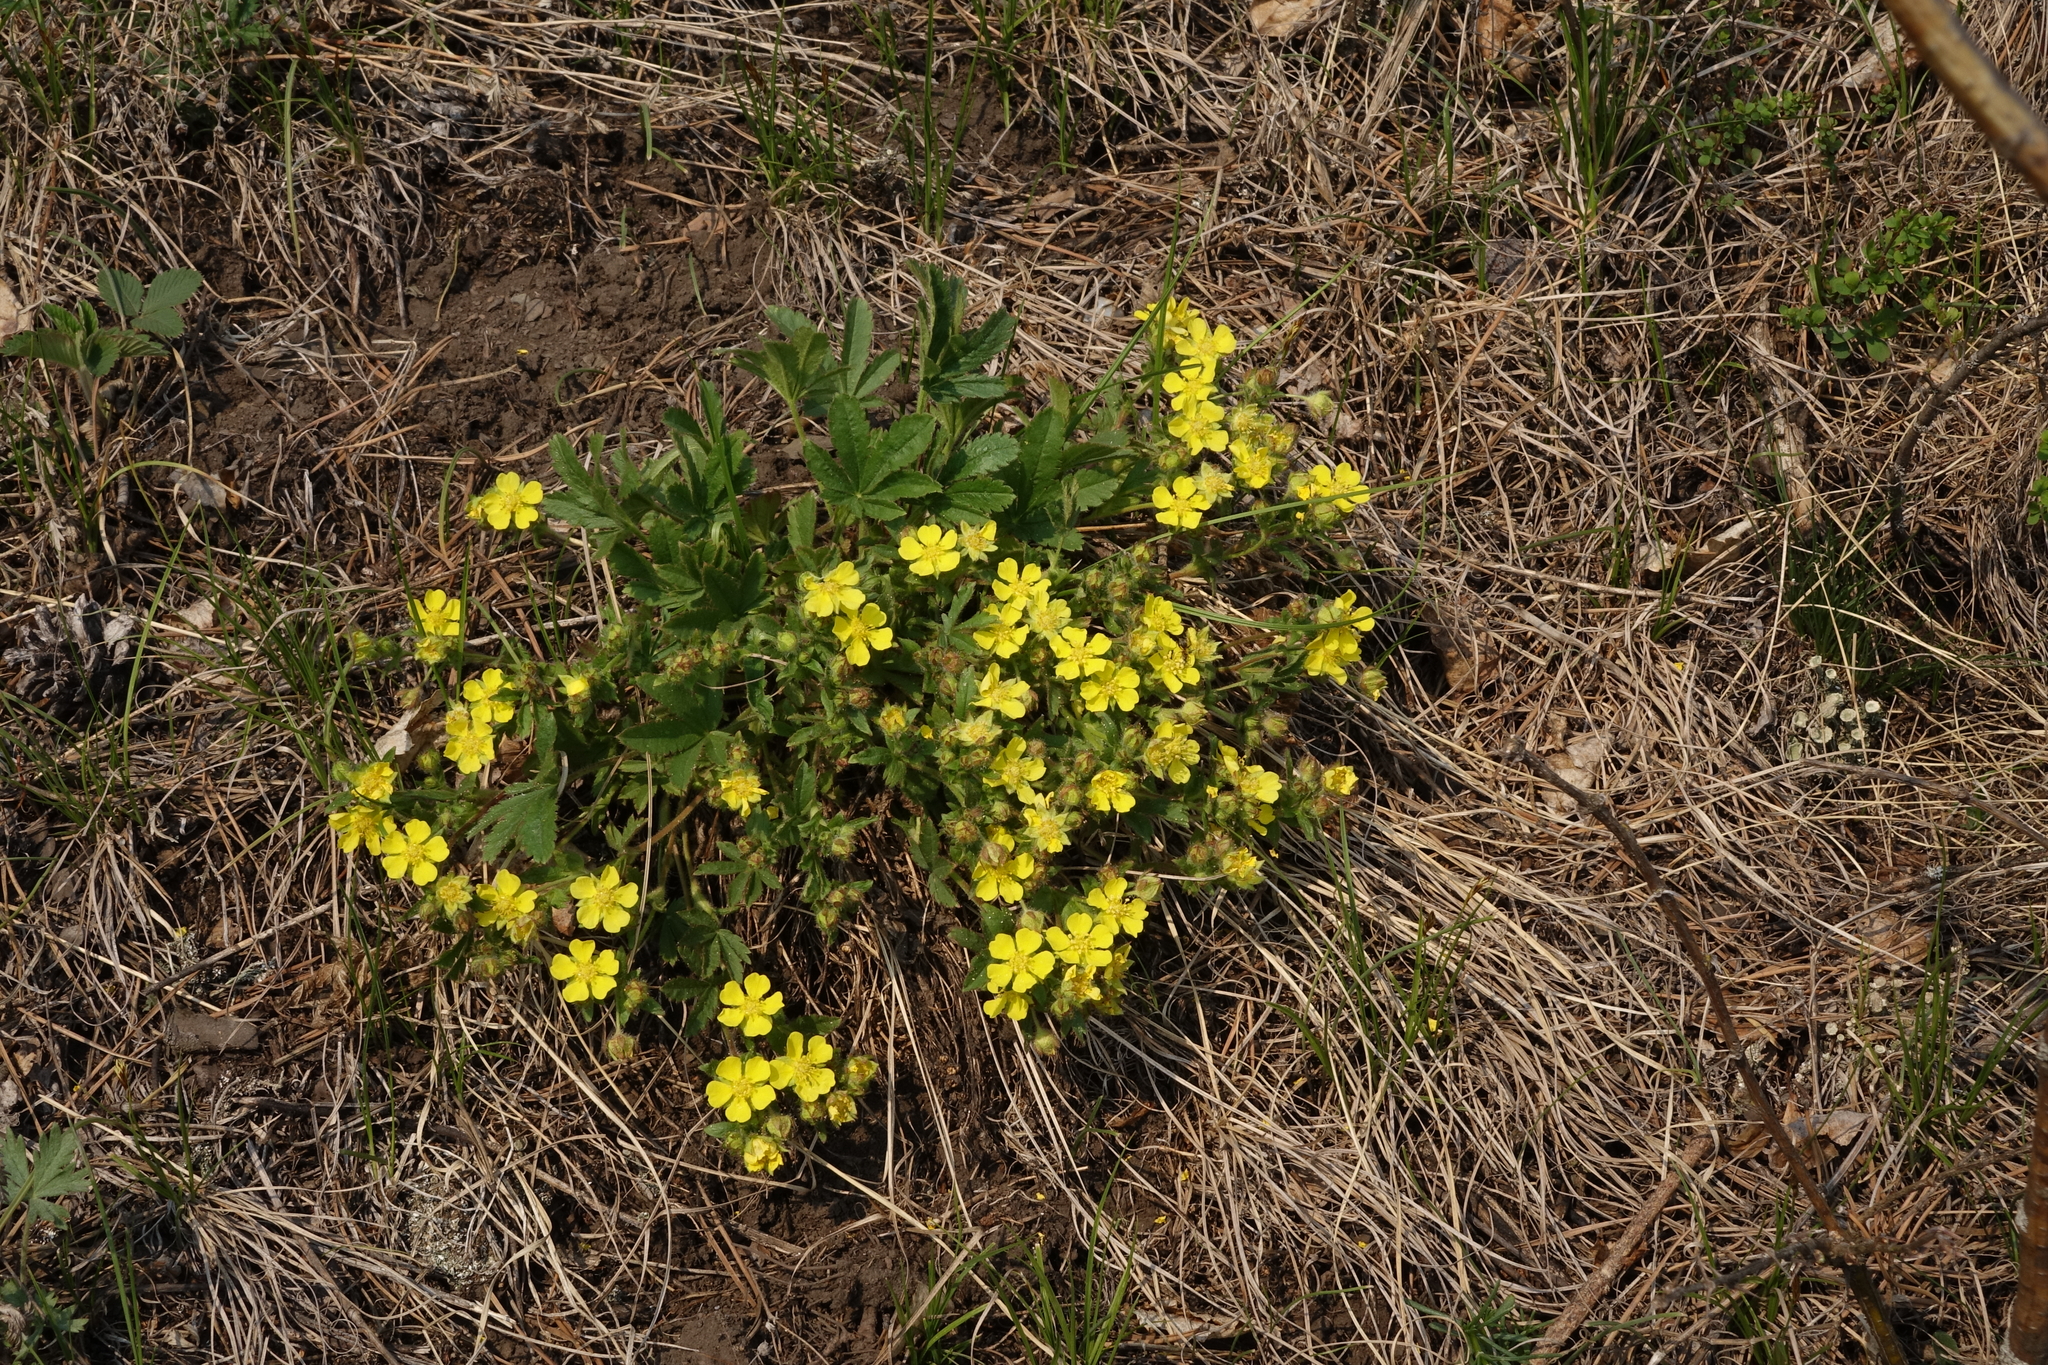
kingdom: Plantae
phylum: Tracheophyta
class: Magnoliopsida
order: Rosales
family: Rosaceae
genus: Potentilla
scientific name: Potentilla humifusa
